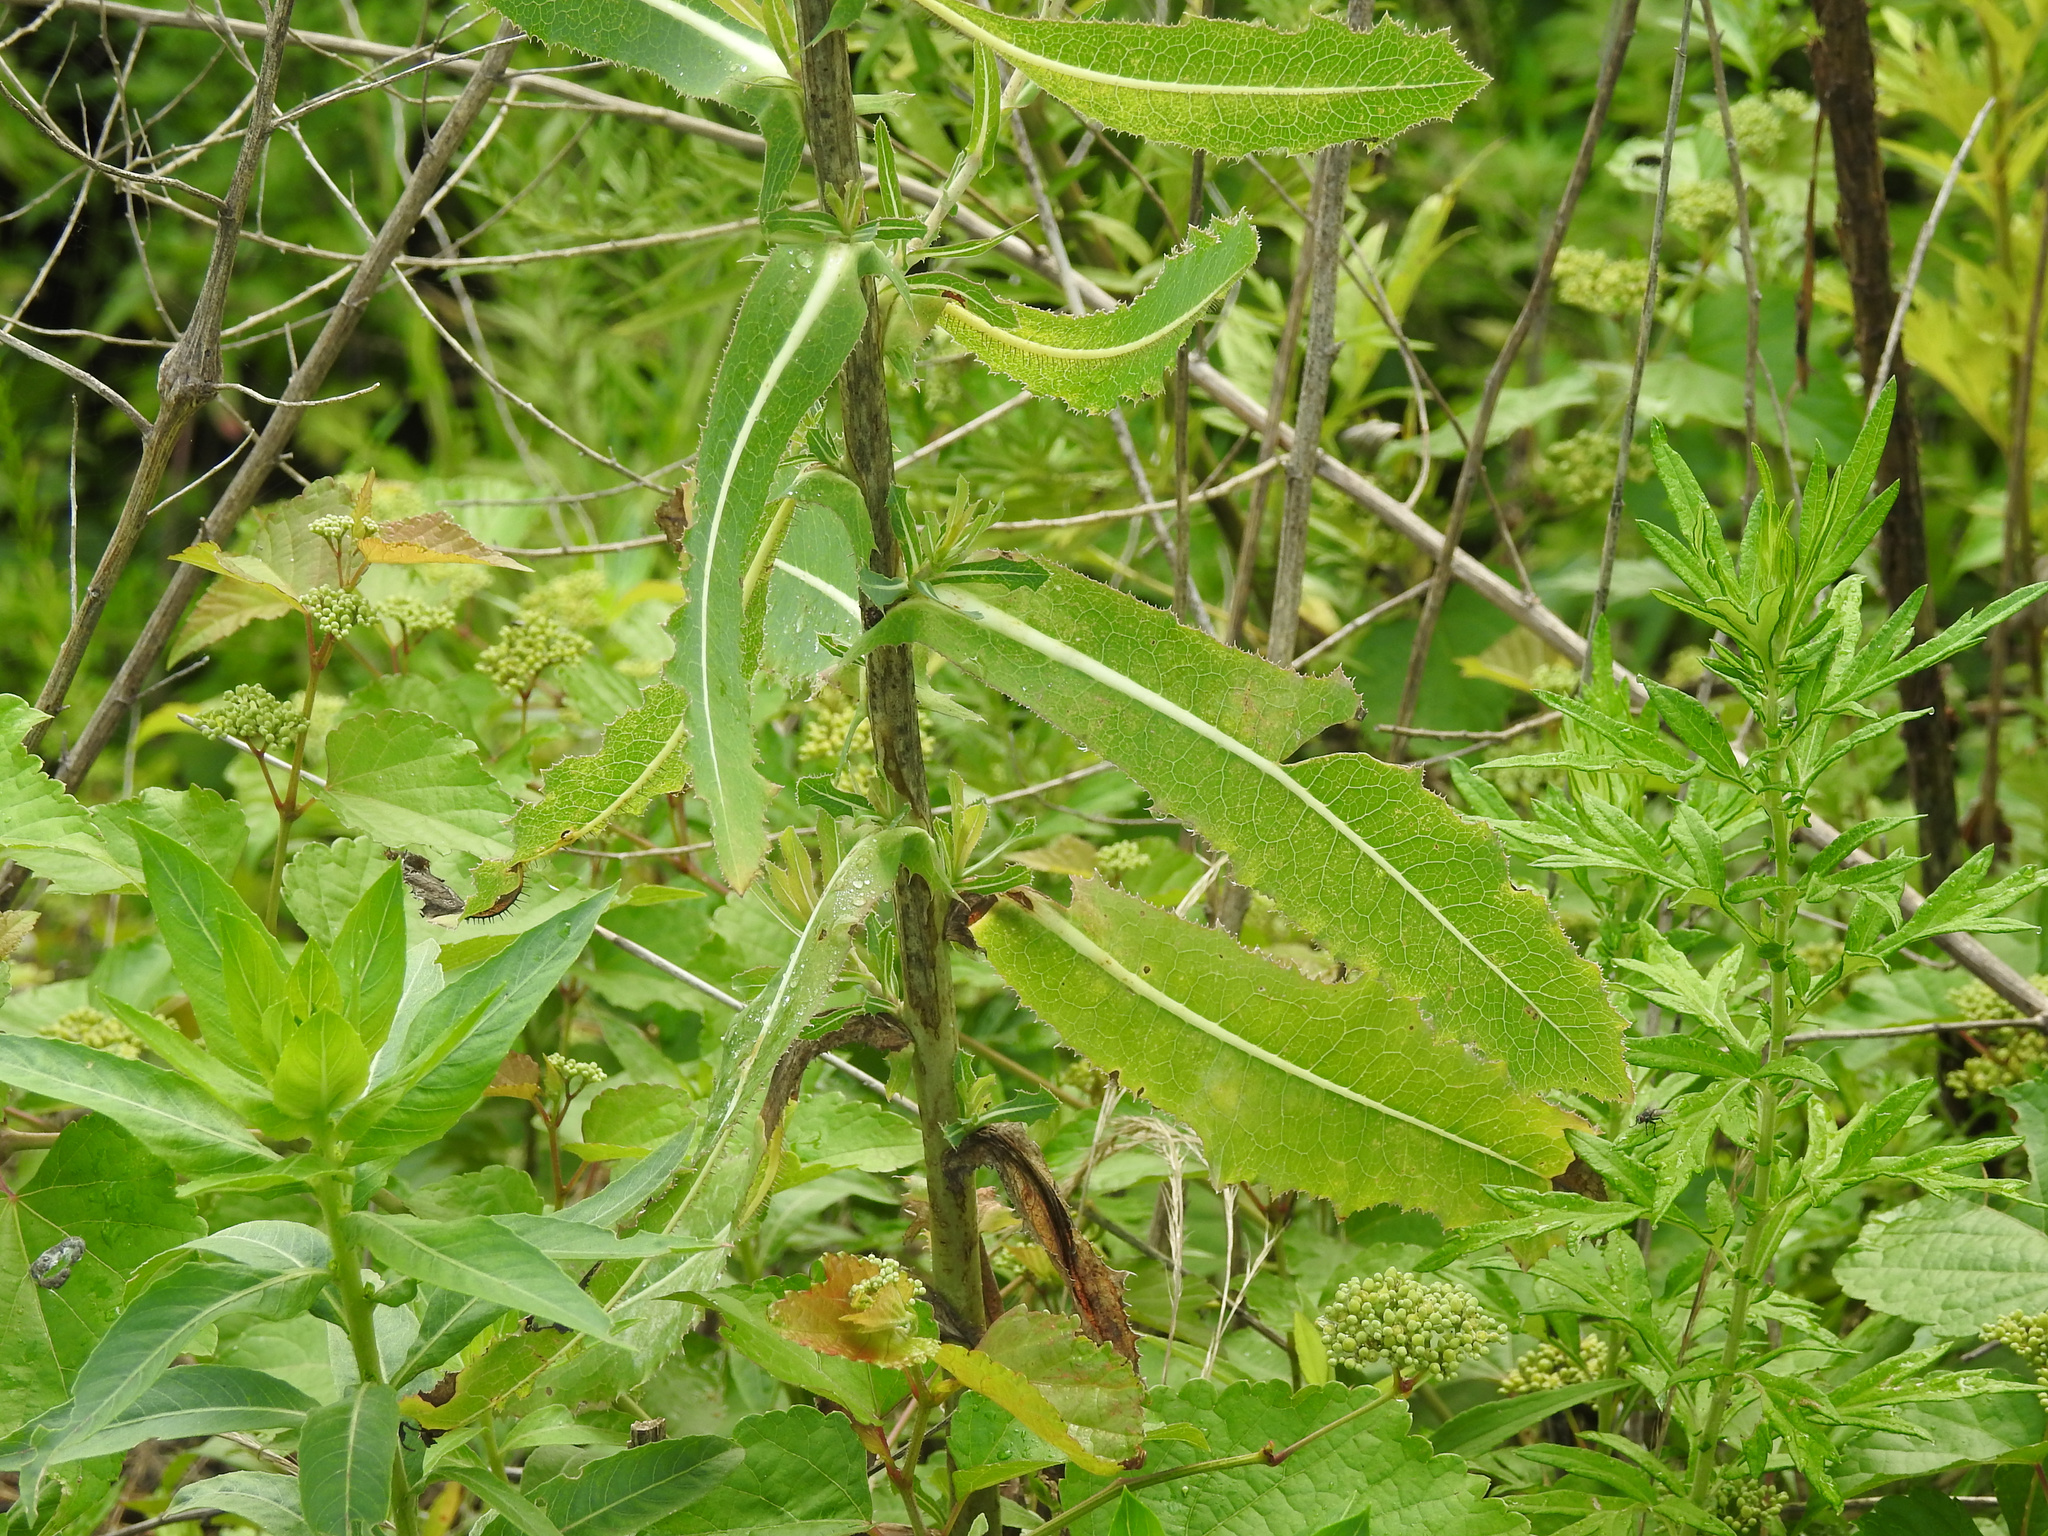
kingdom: Plantae
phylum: Tracheophyta
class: Magnoliopsida
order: Asterales
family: Asteraceae
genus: Lactuca
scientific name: Lactuca serriola
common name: Prickly lettuce
